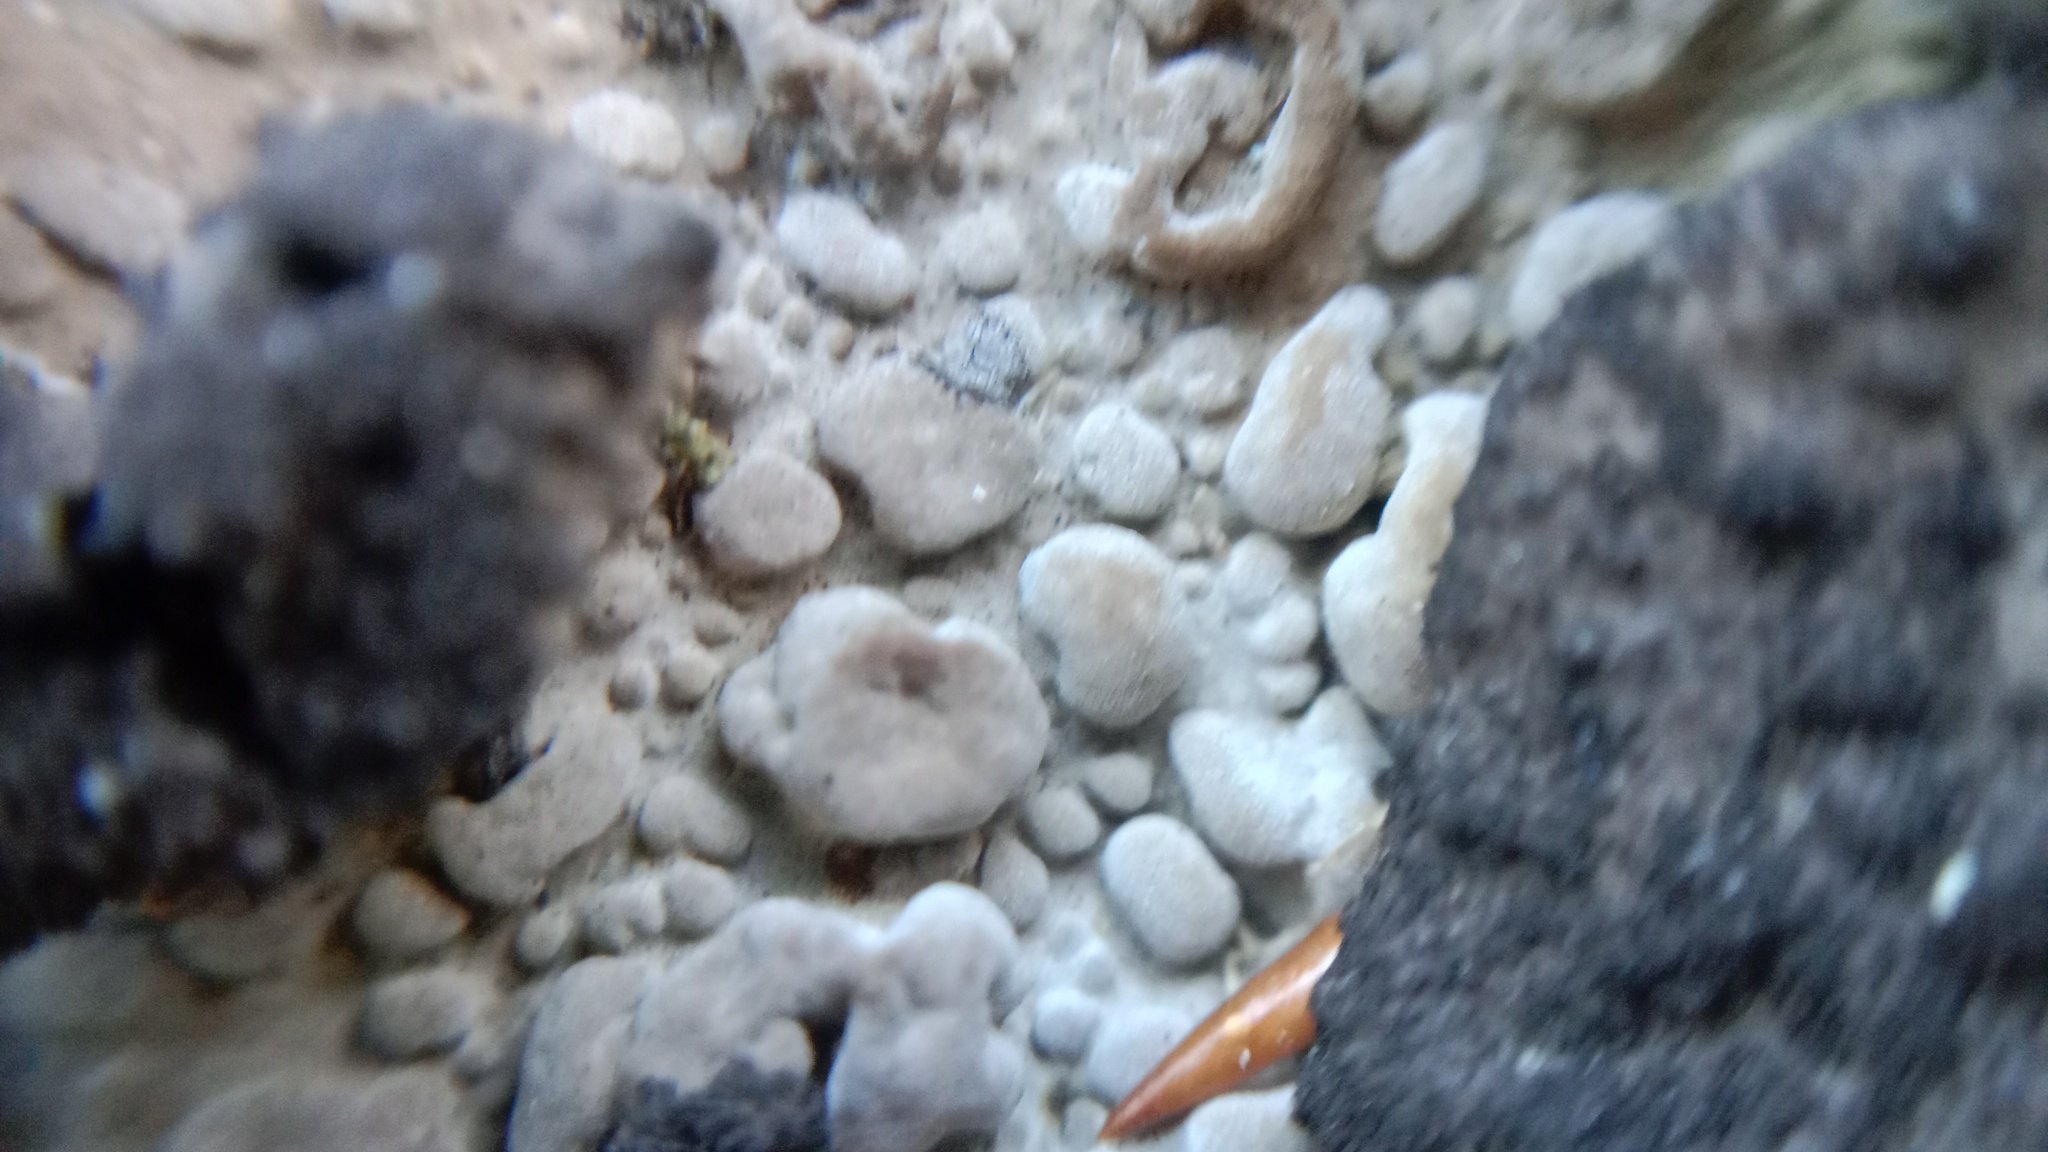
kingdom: Fungi
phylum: Ascomycota
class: Lecanoromycetes
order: Umbilicariales
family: Umbilicariaceae
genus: Lasallia
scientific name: Lasallia pustulata
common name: Blistered toadskin lichen
